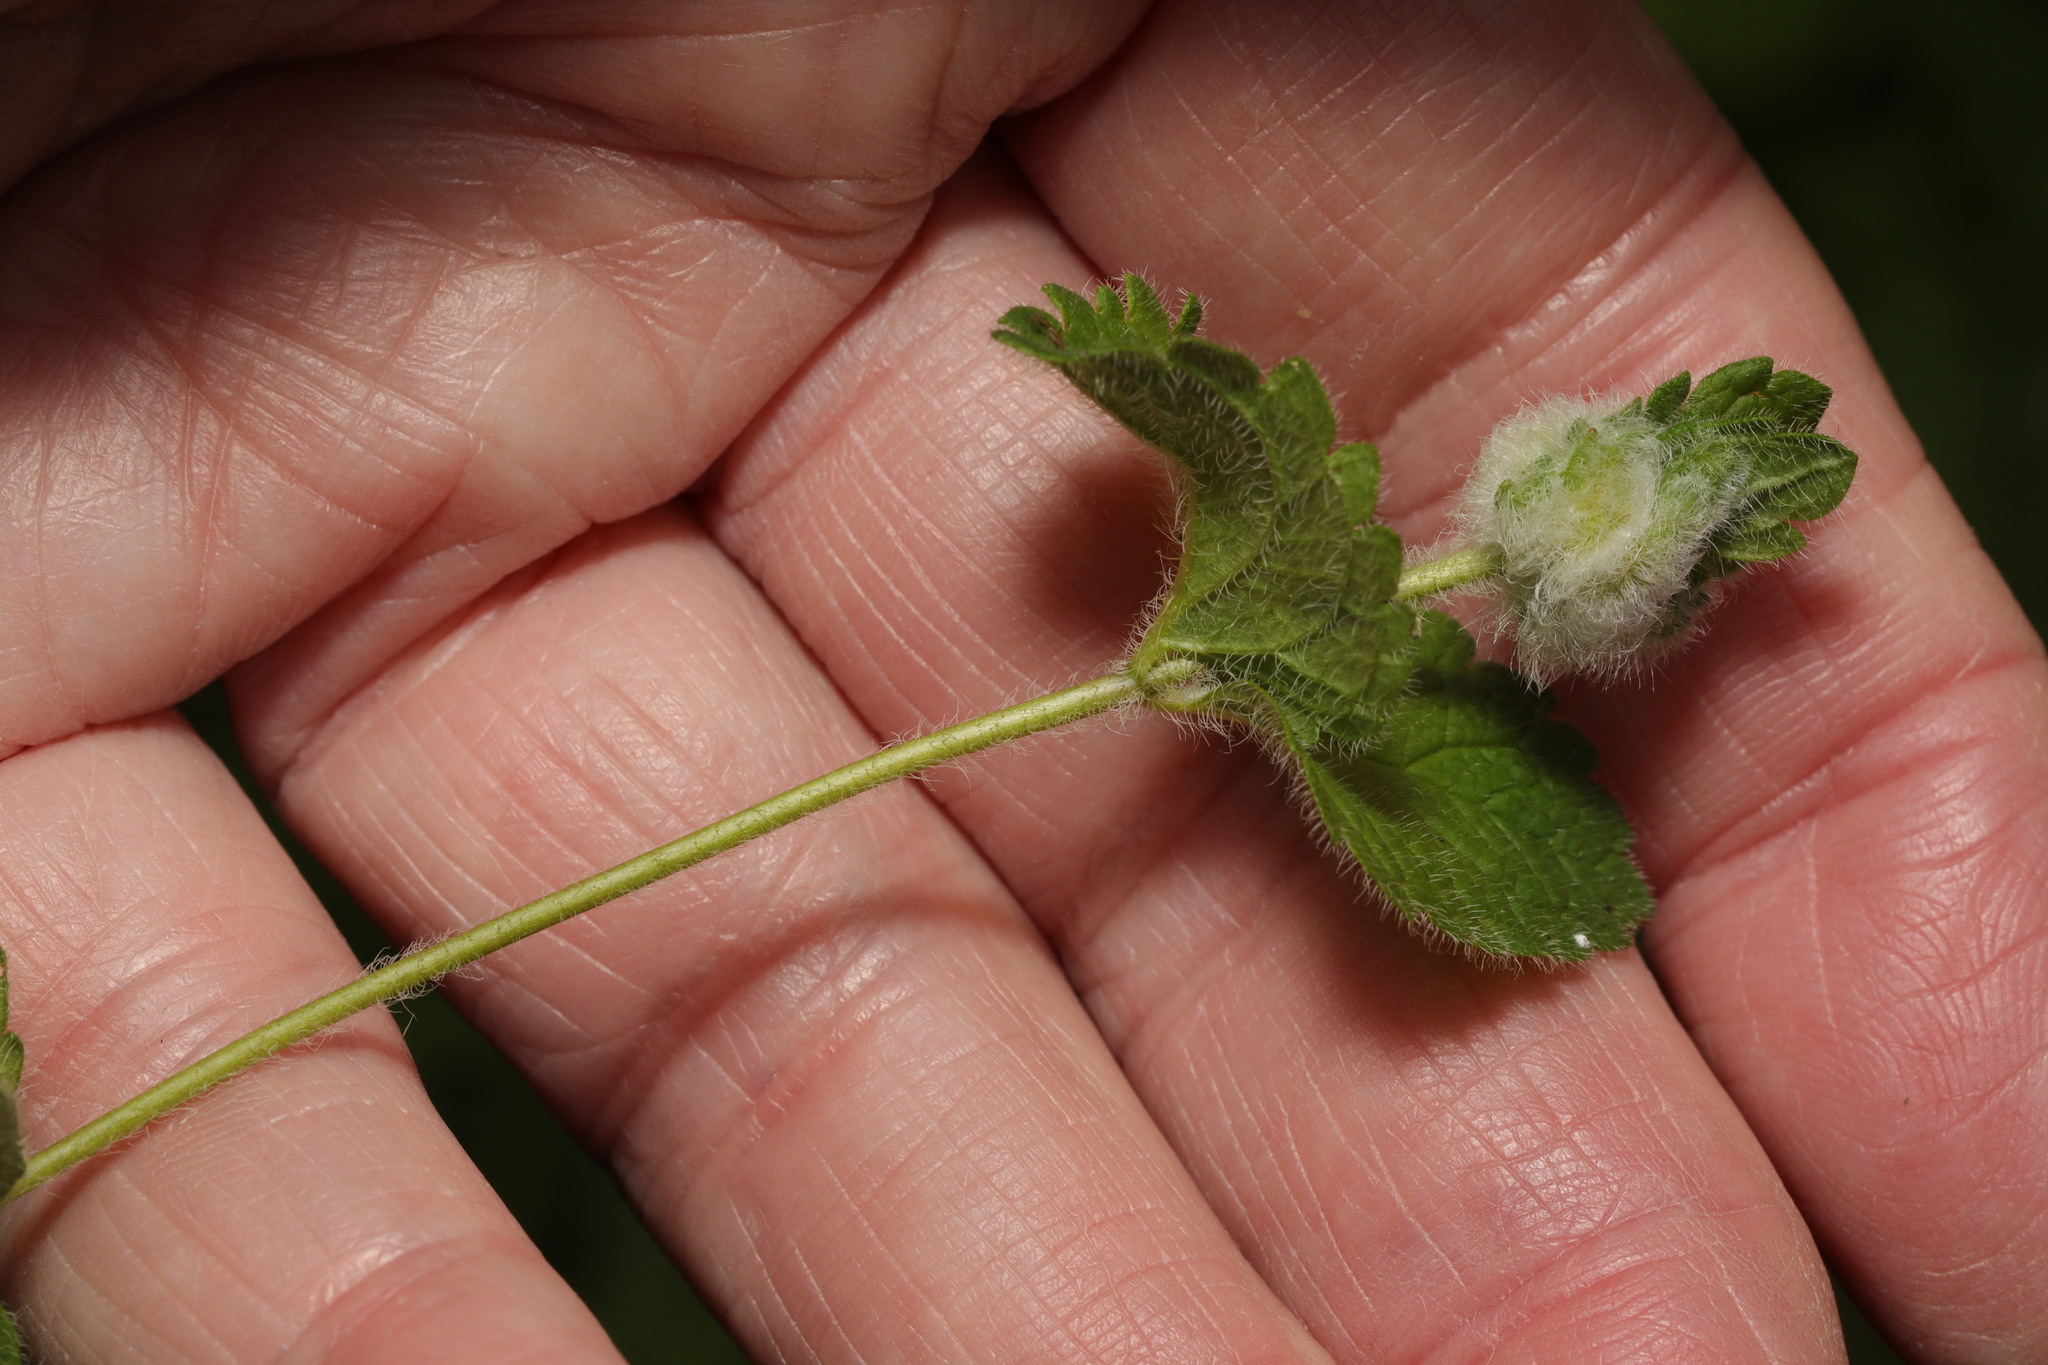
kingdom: Animalia
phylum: Arthropoda
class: Insecta
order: Diptera
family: Cecidomyiidae
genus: Jaapiella
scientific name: Jaapiella veronicae
